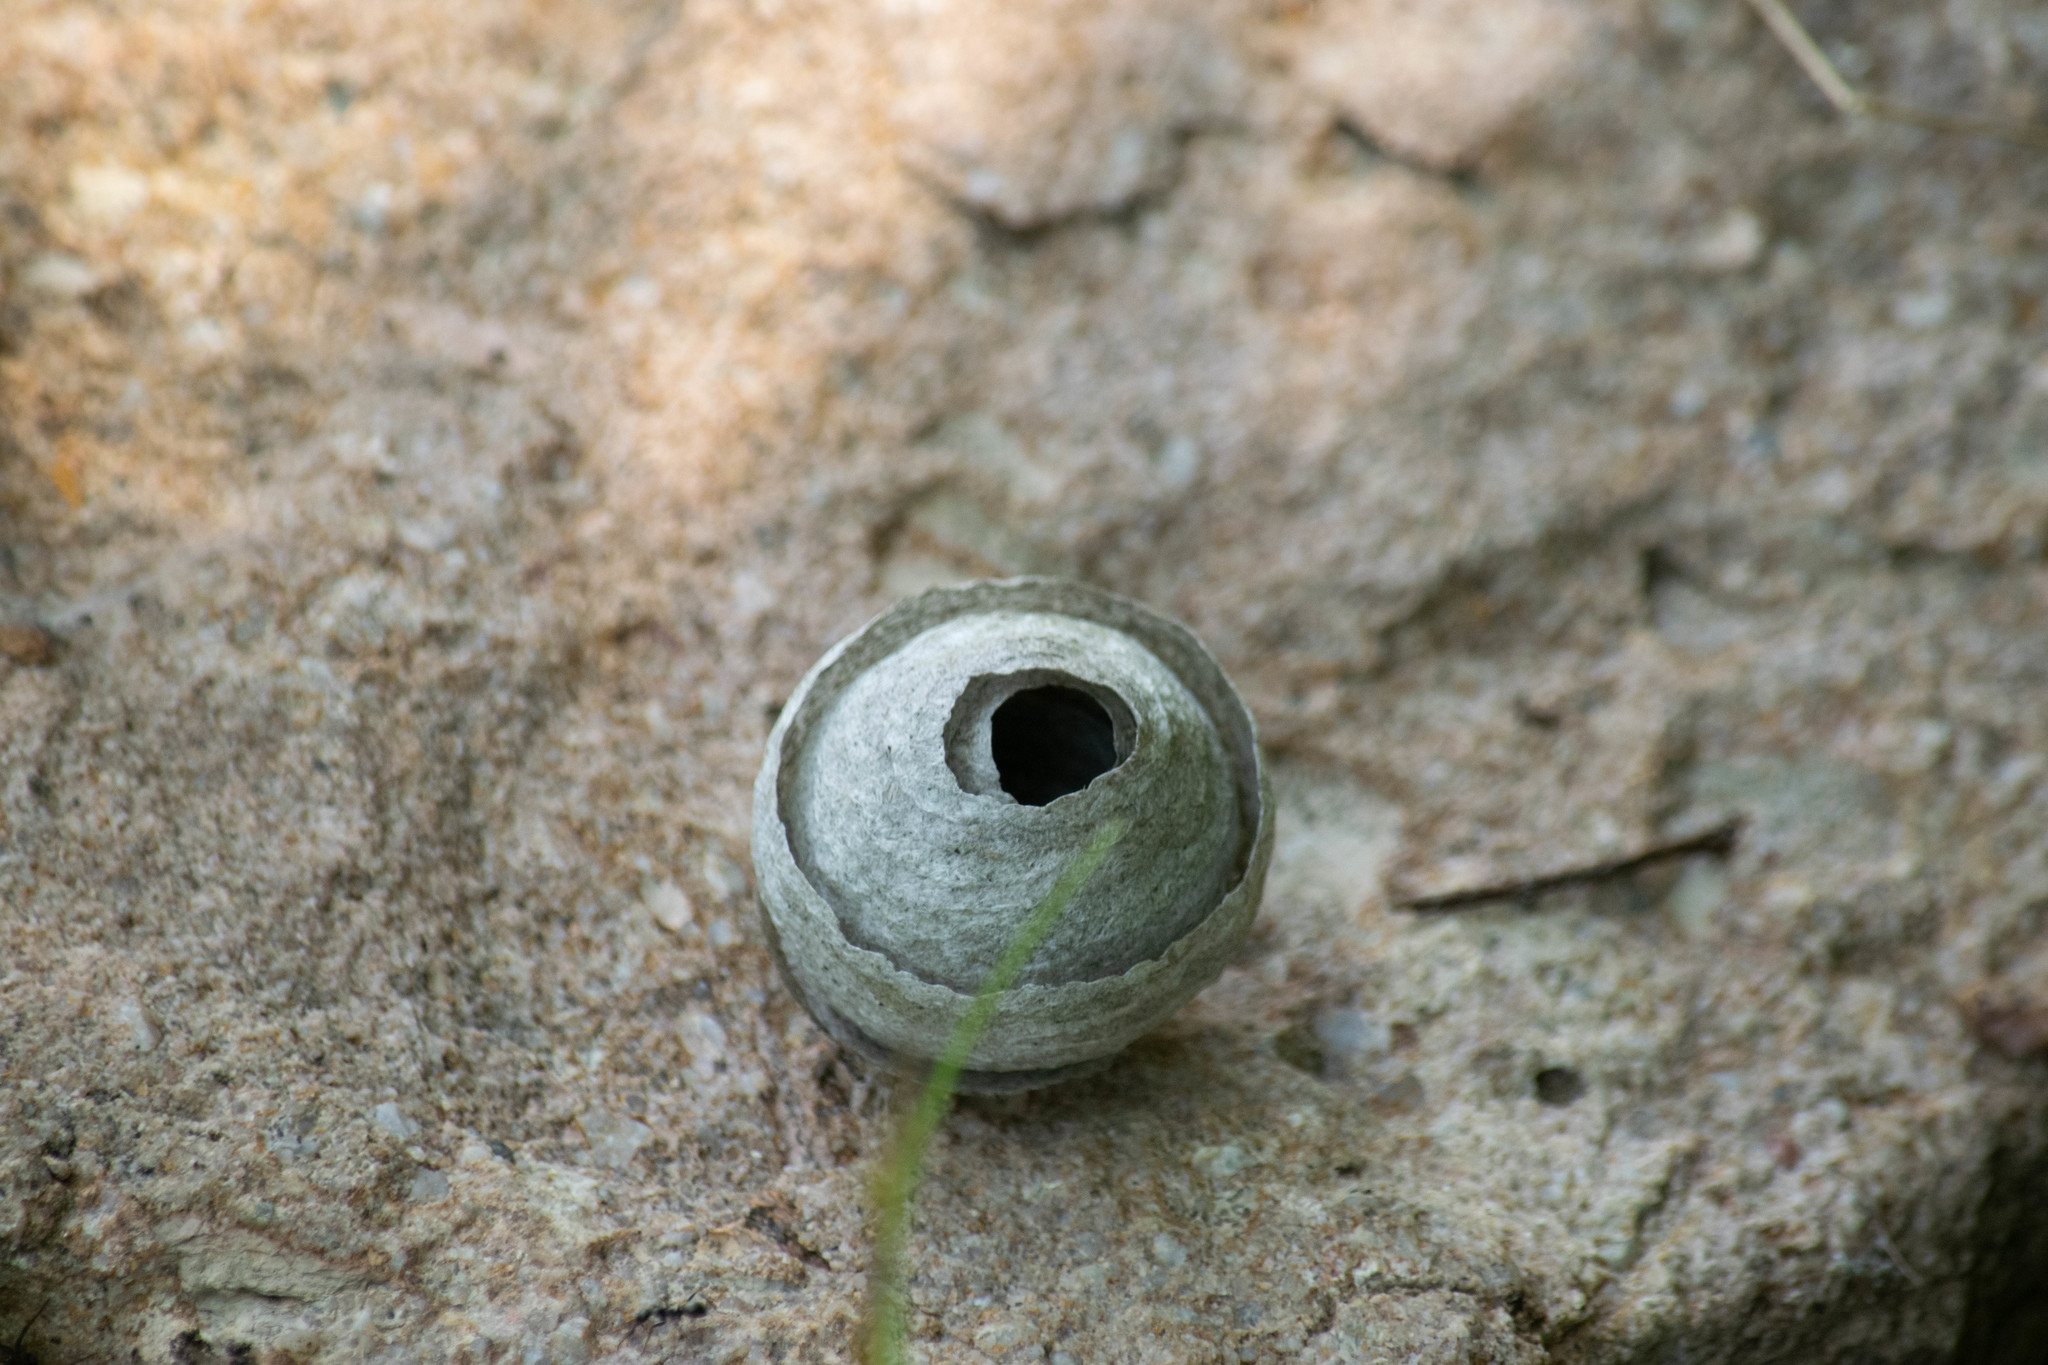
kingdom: Animalia
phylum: Arthropoda
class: Insecta
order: Hymenoptera
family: Vespidae
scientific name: Vespidae
